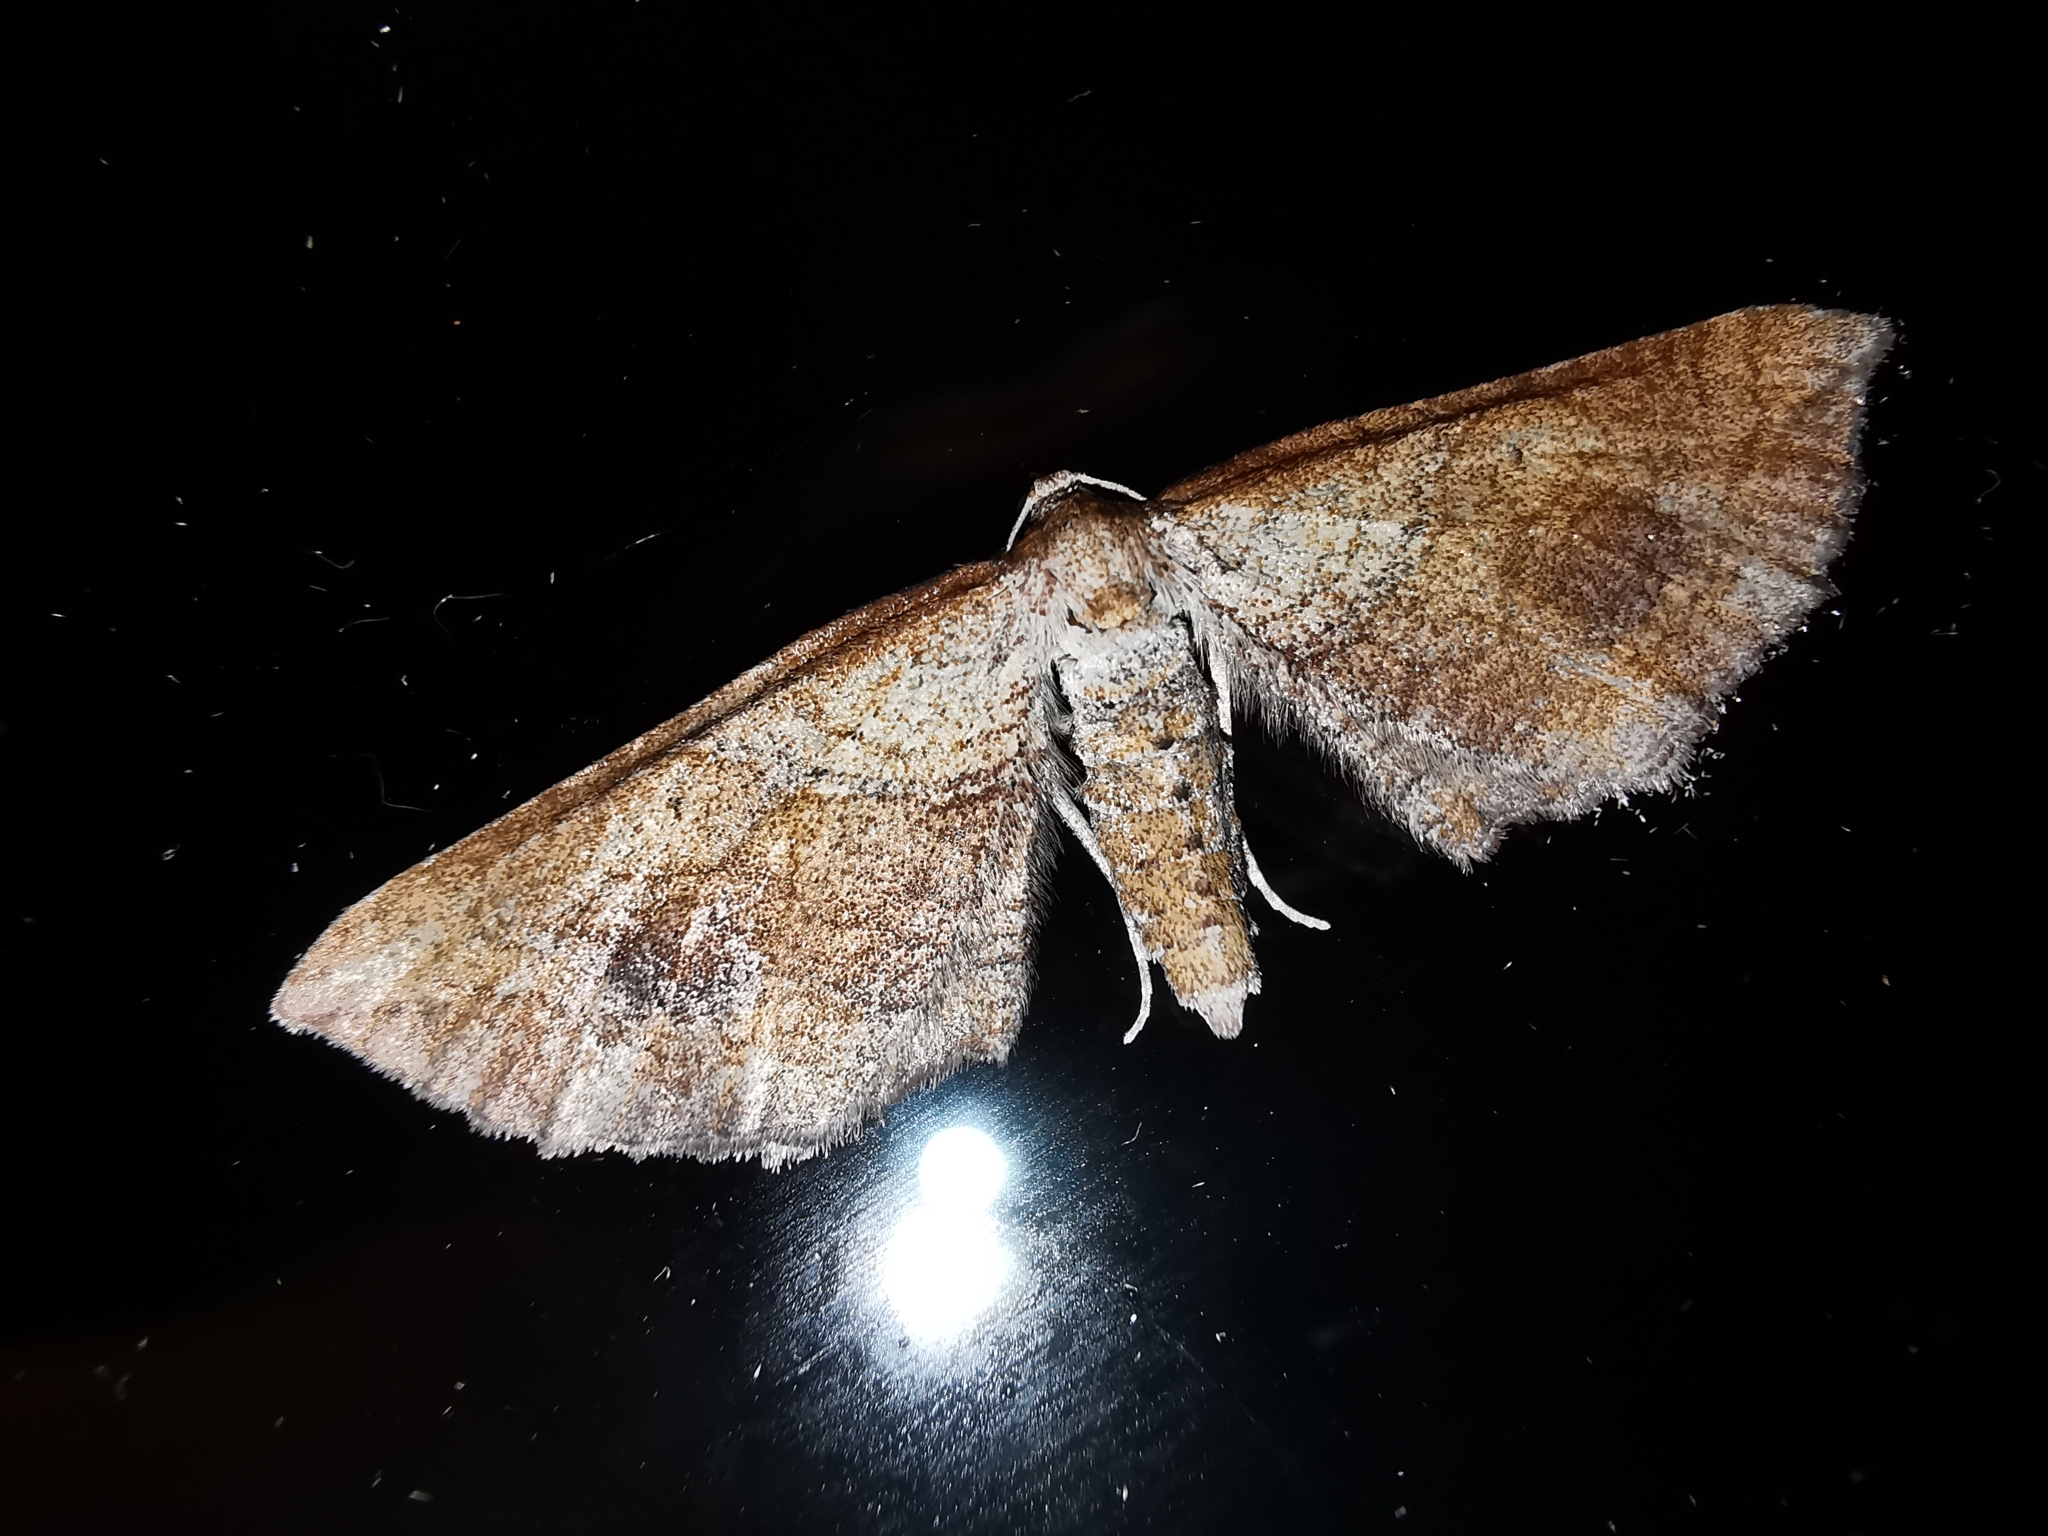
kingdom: Animalia
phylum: Arthropoda
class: Insecta
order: Lepidoptera
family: Geometridae
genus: Coenocalpe
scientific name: Coenocalpe millierata
